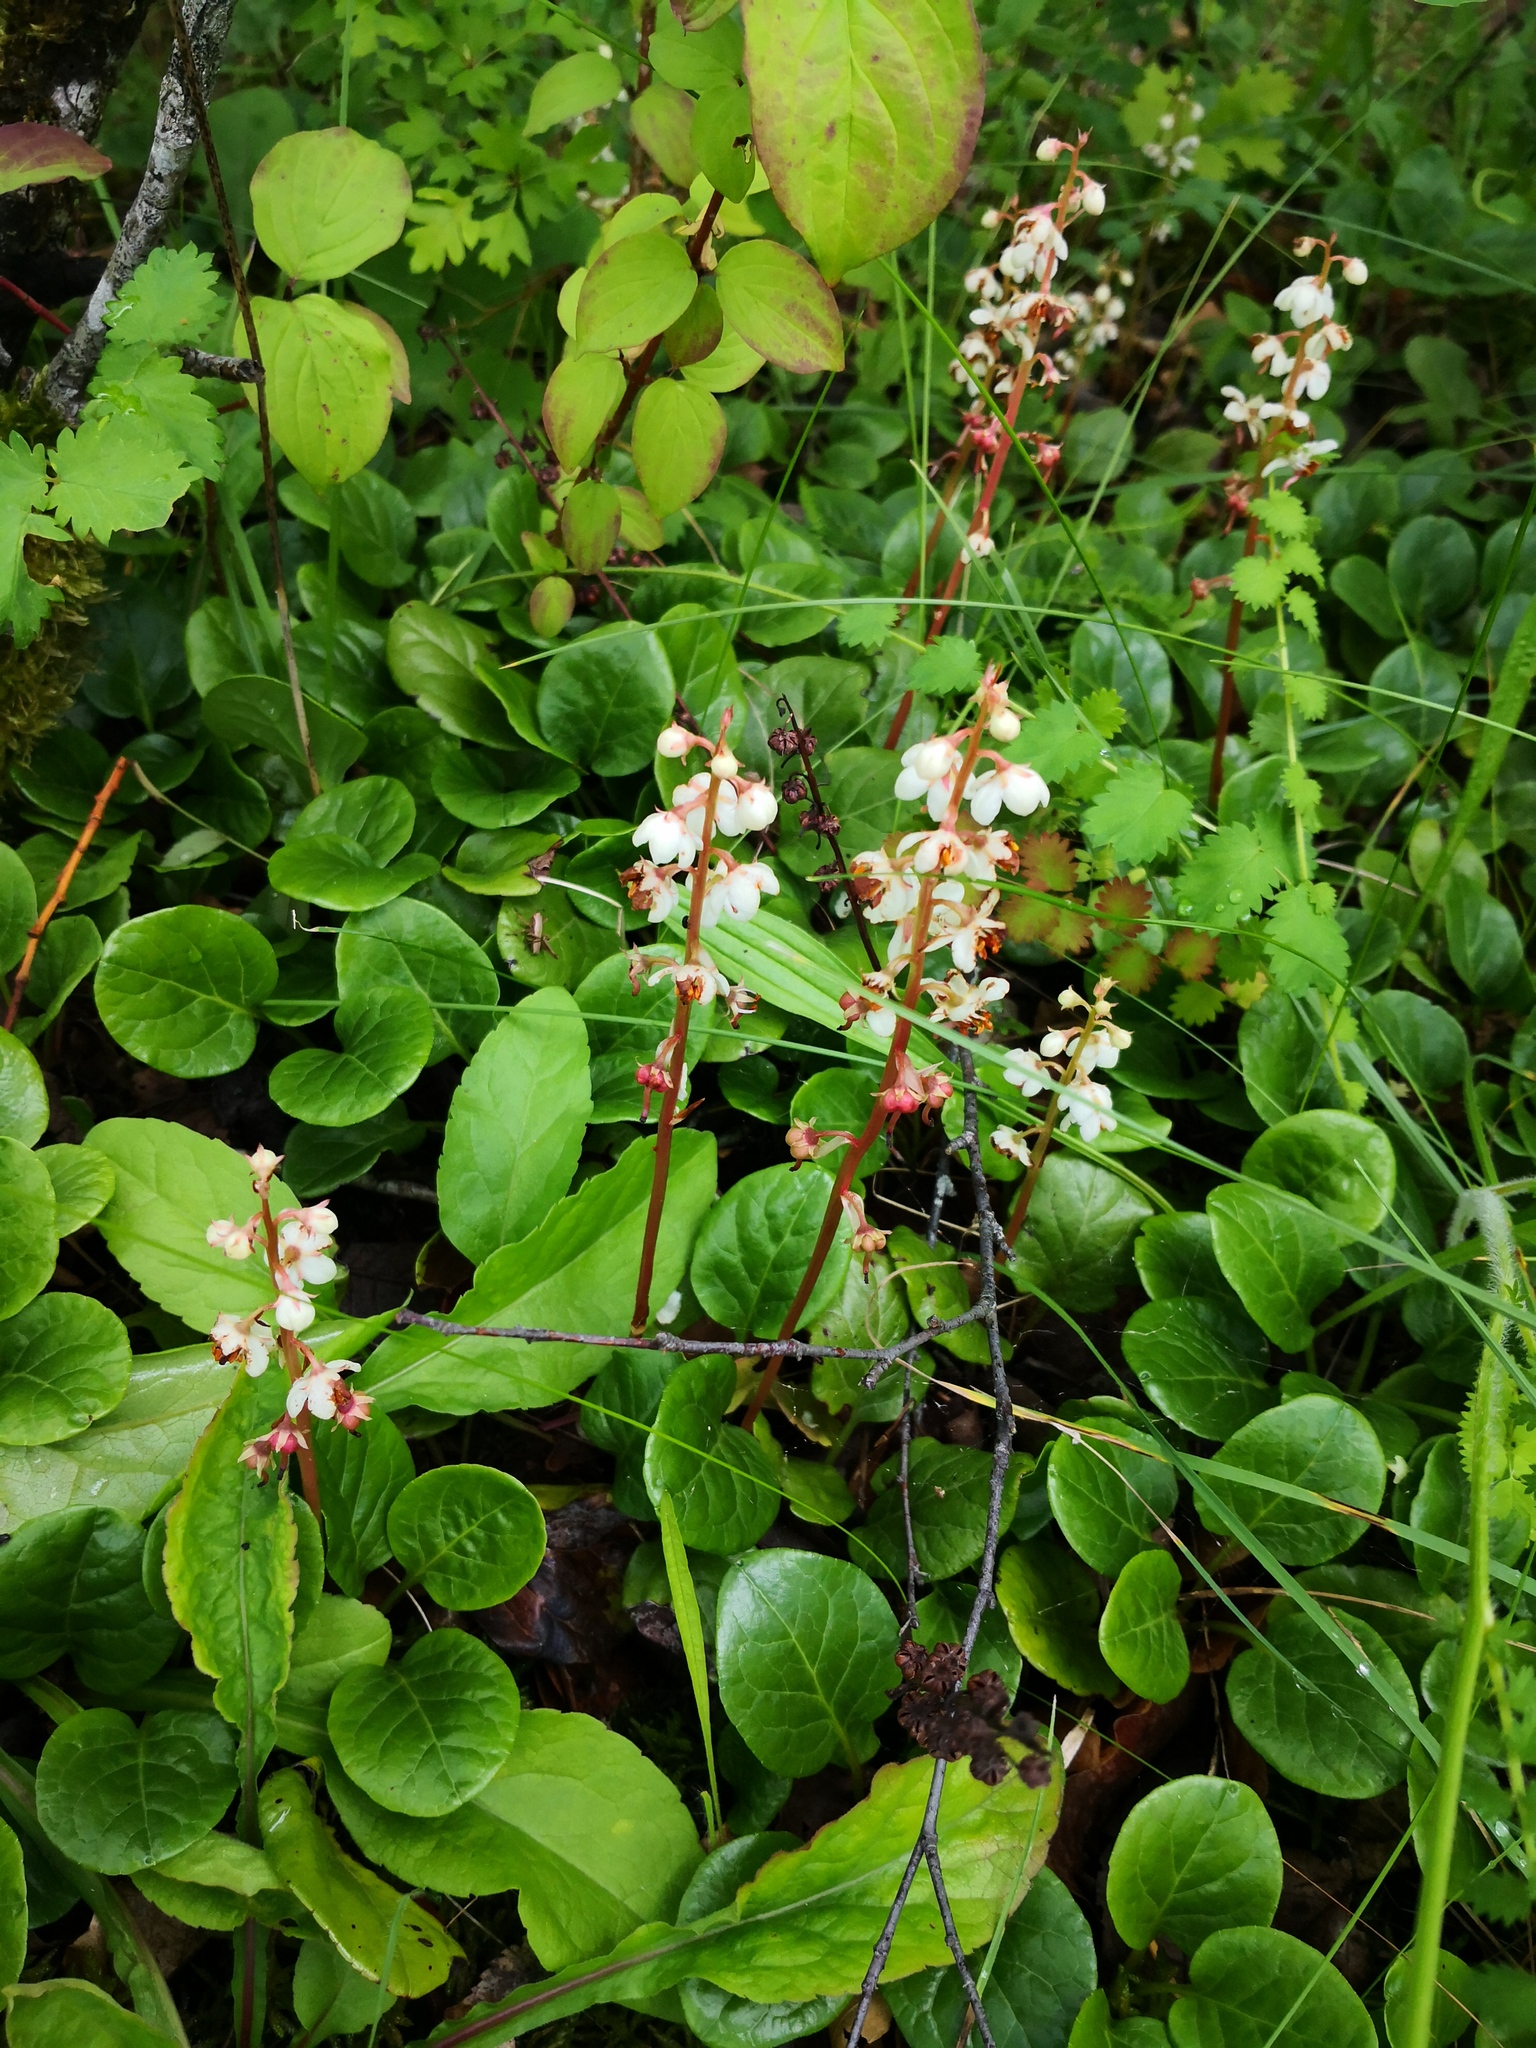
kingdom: Plantae
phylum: Tracheophyta
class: Magnoliopsida
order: Ericales
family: Ericaceae
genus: Pyrola
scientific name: Pyrola rotundifolia
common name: Round-leaved wintergreen
